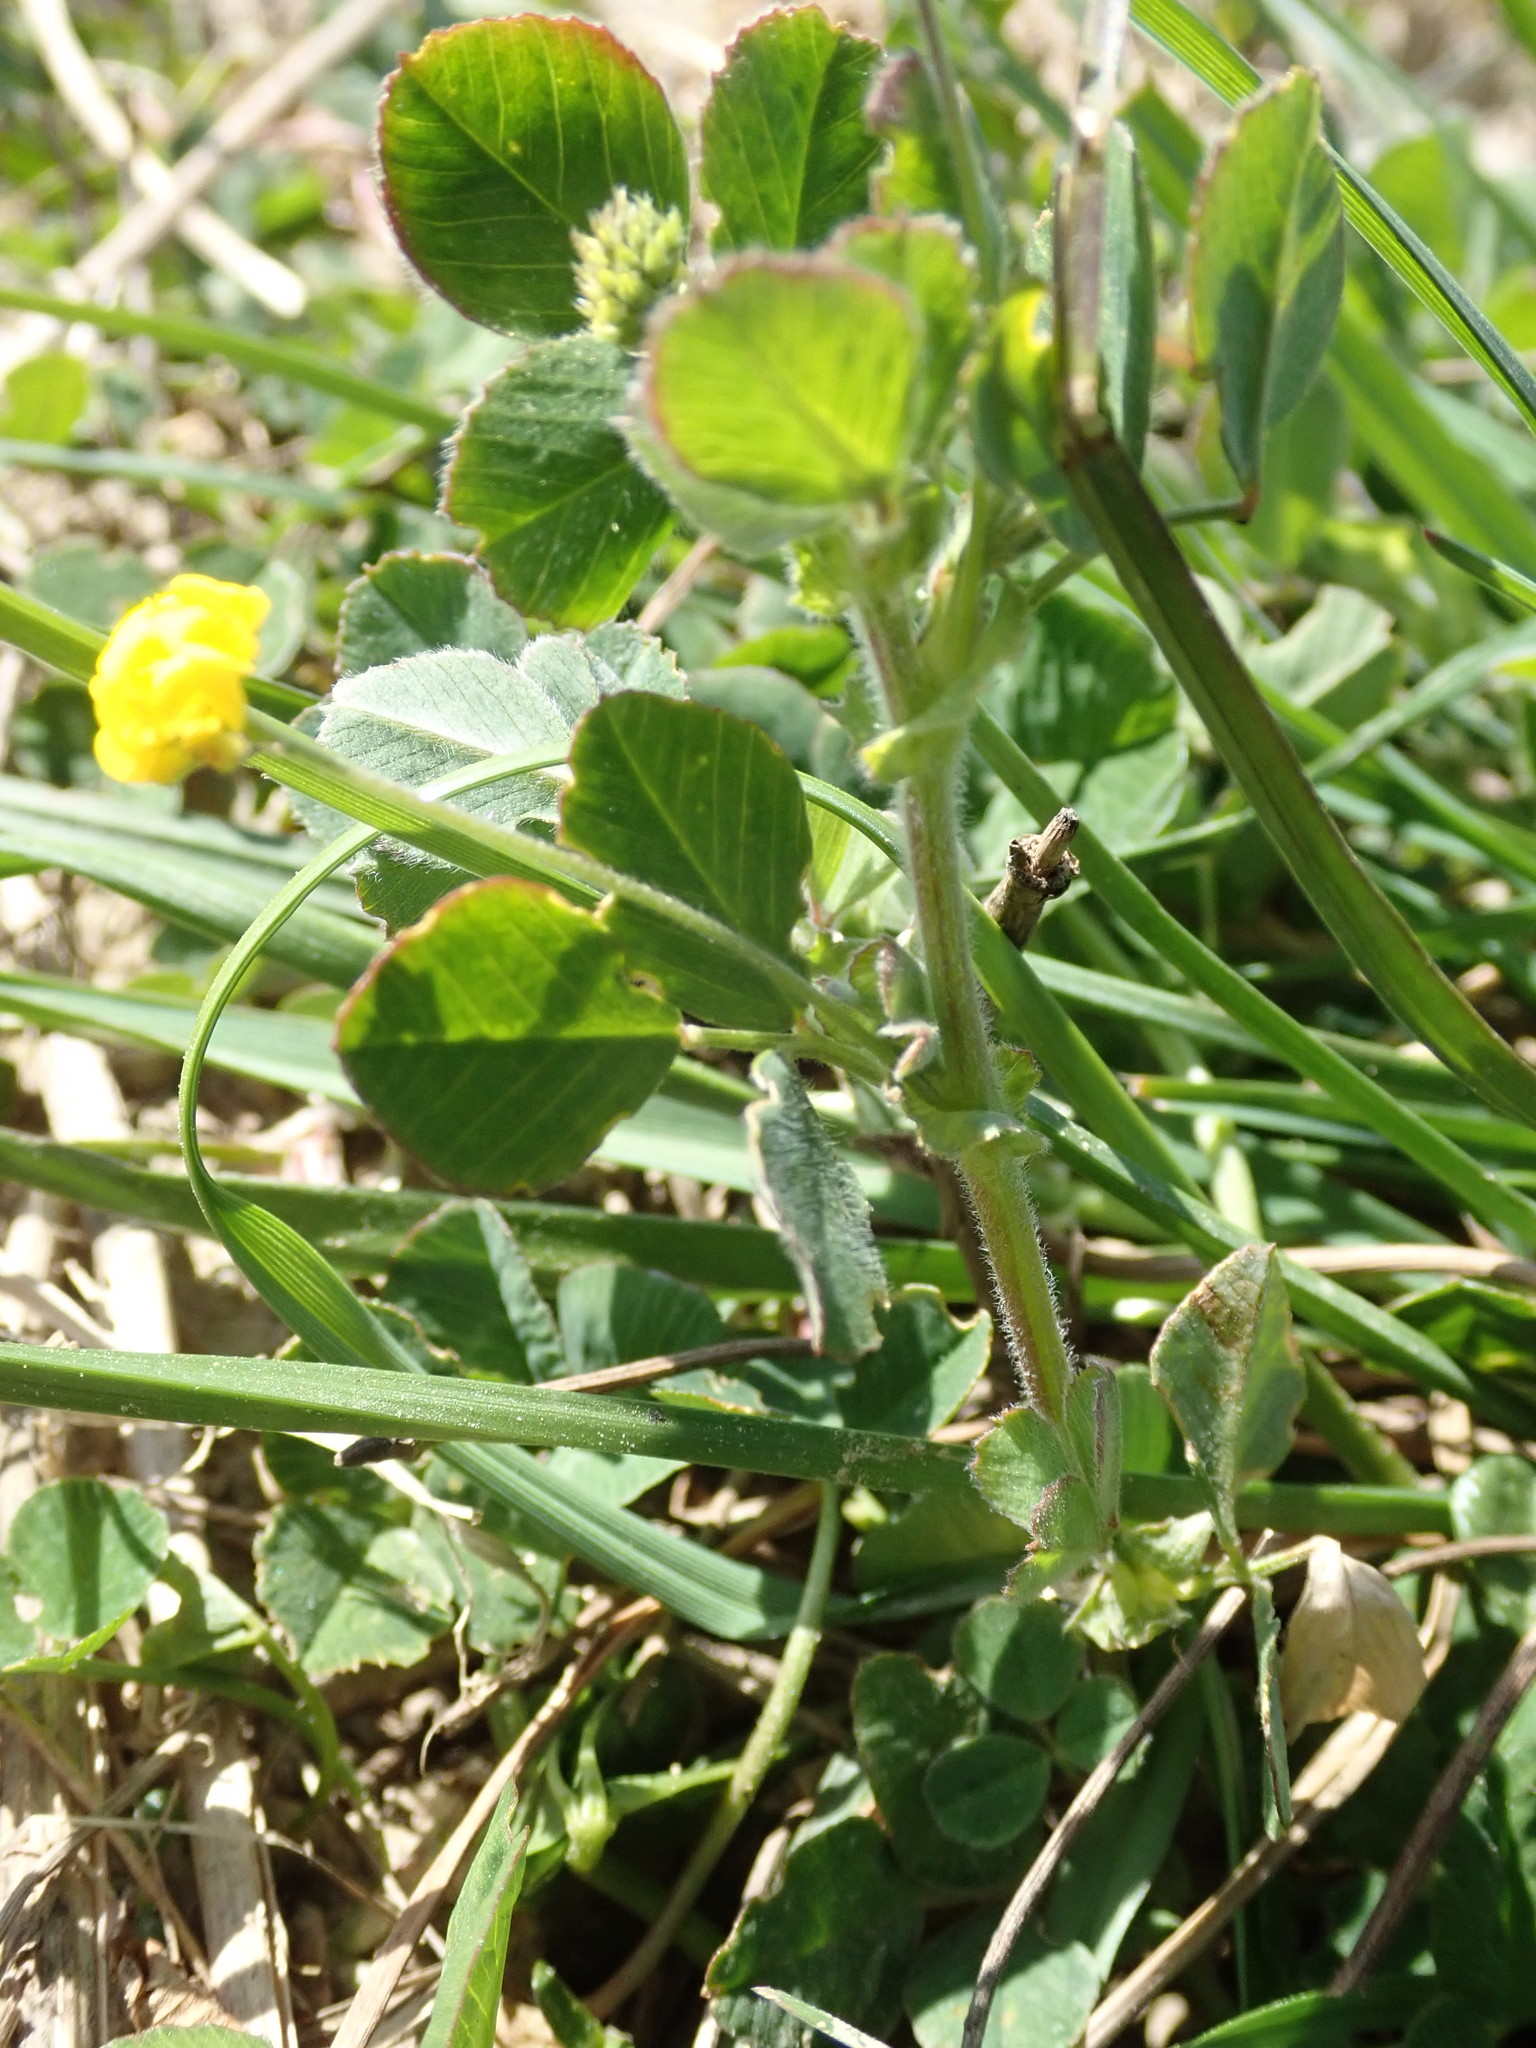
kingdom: Plantae
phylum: Tracheophyta
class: Magnoliopsida
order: Fabales
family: Fabaceae
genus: Medicago
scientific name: Medicago lupulina
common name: Black medick
